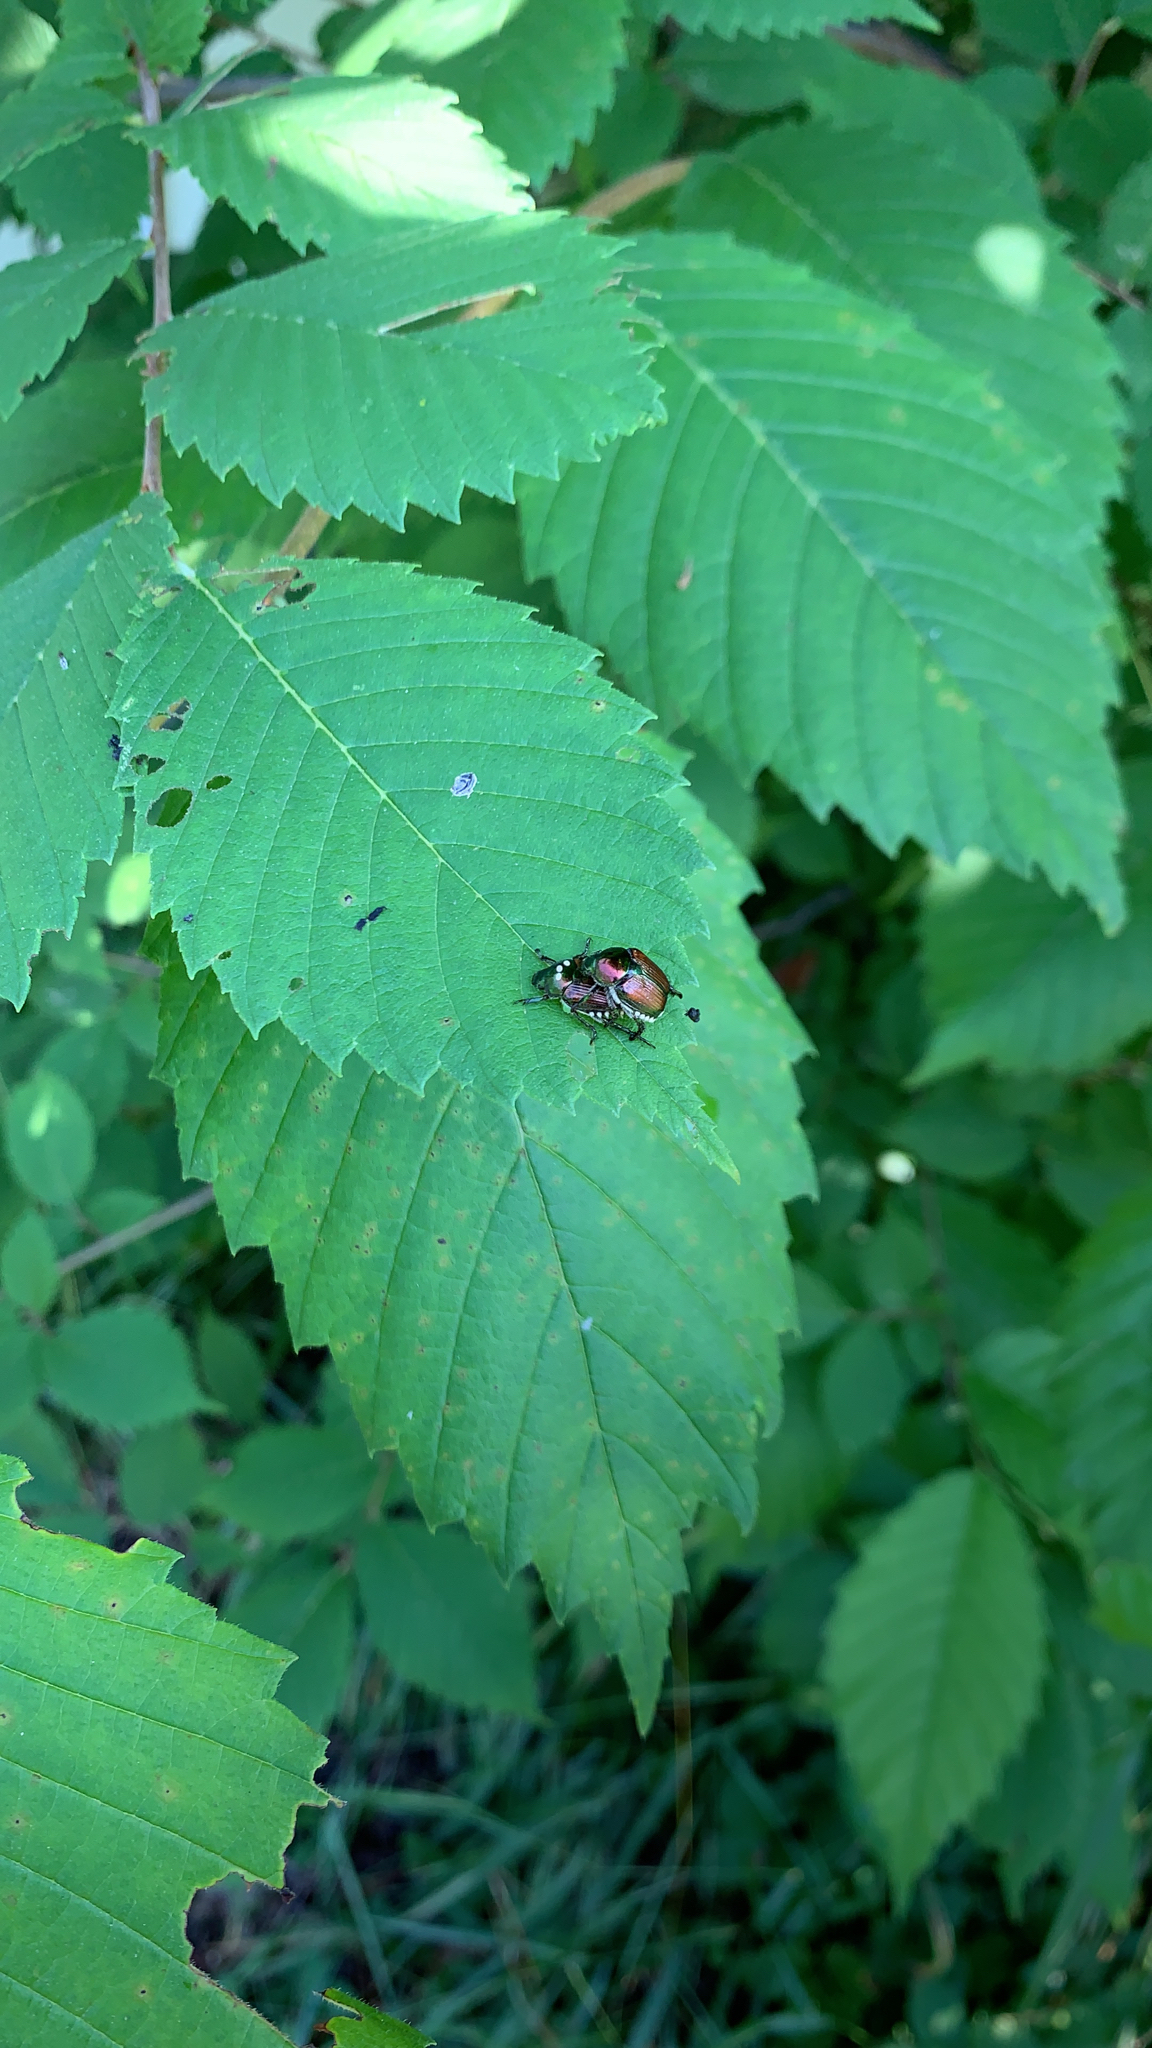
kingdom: Animalia
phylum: Arthropoda
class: Insecta
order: Coleoptera
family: Scarabaeidae
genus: Popillia
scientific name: Popillia japonica
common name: Japanese beetle
